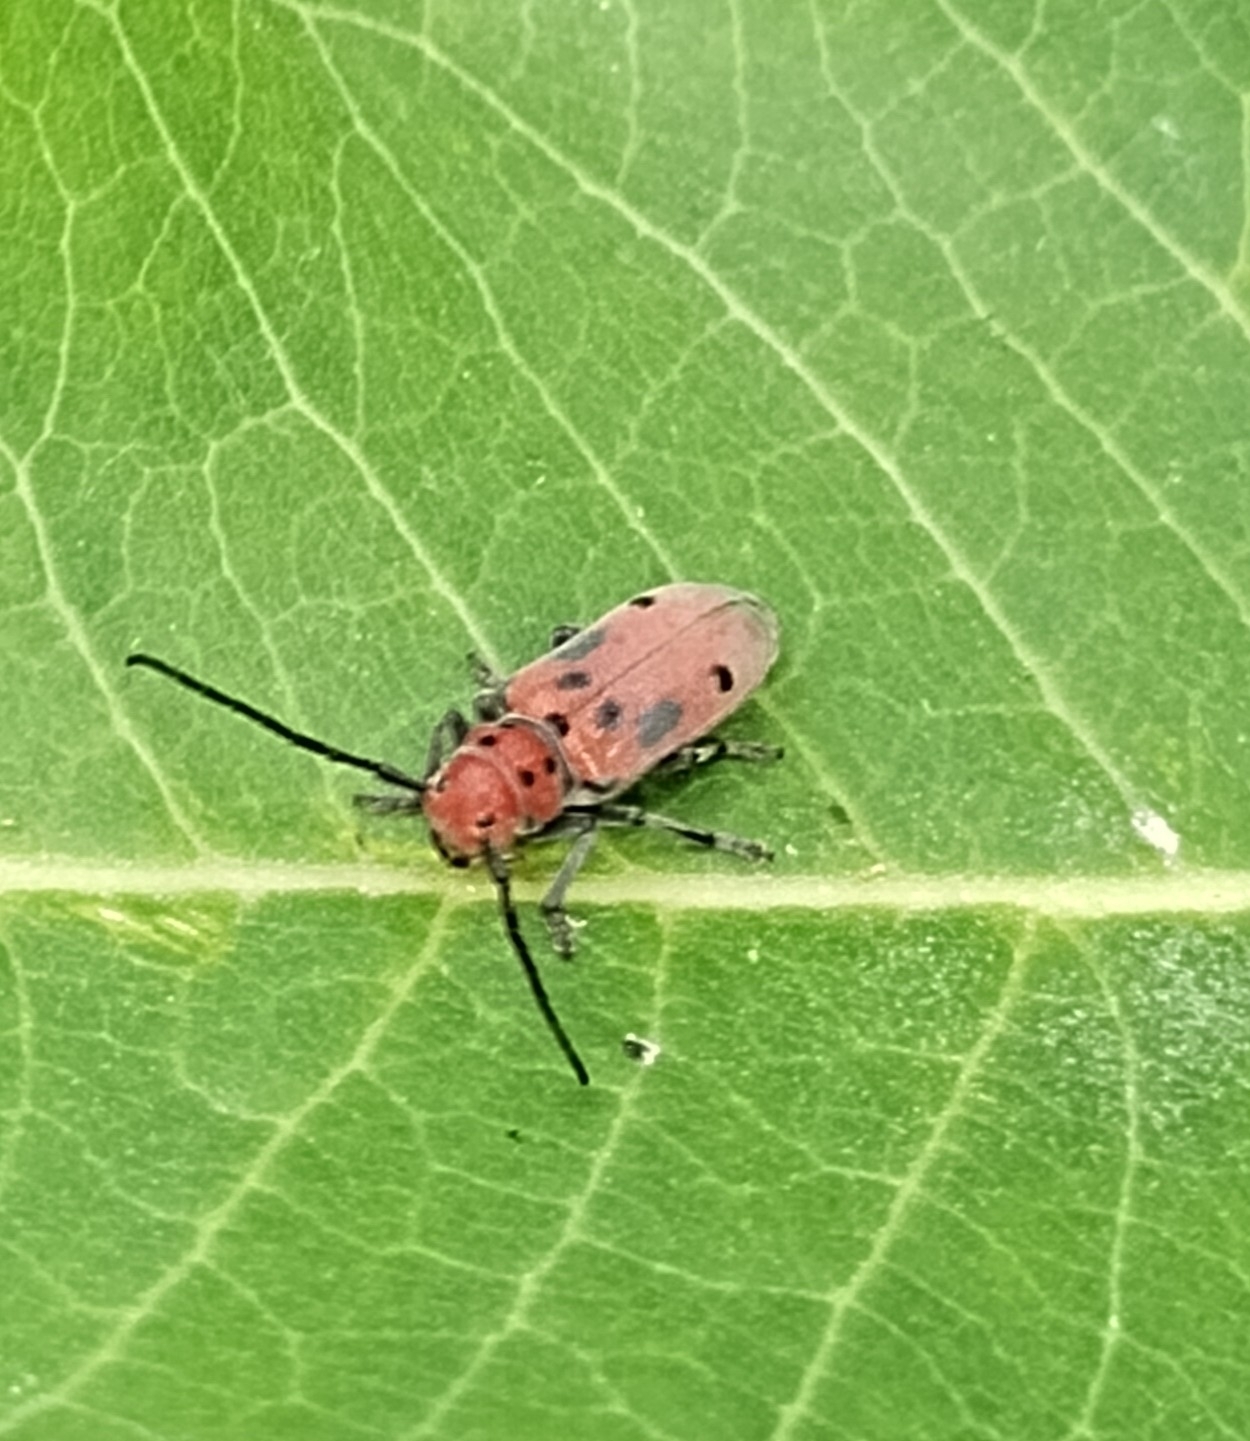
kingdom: Animalia
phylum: Arthropoda
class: Insecta
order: Coleoptera
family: Cerambycidae
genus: Tetraopes
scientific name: Tetraopes tetrophthalmus
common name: Red milkweed beetle
